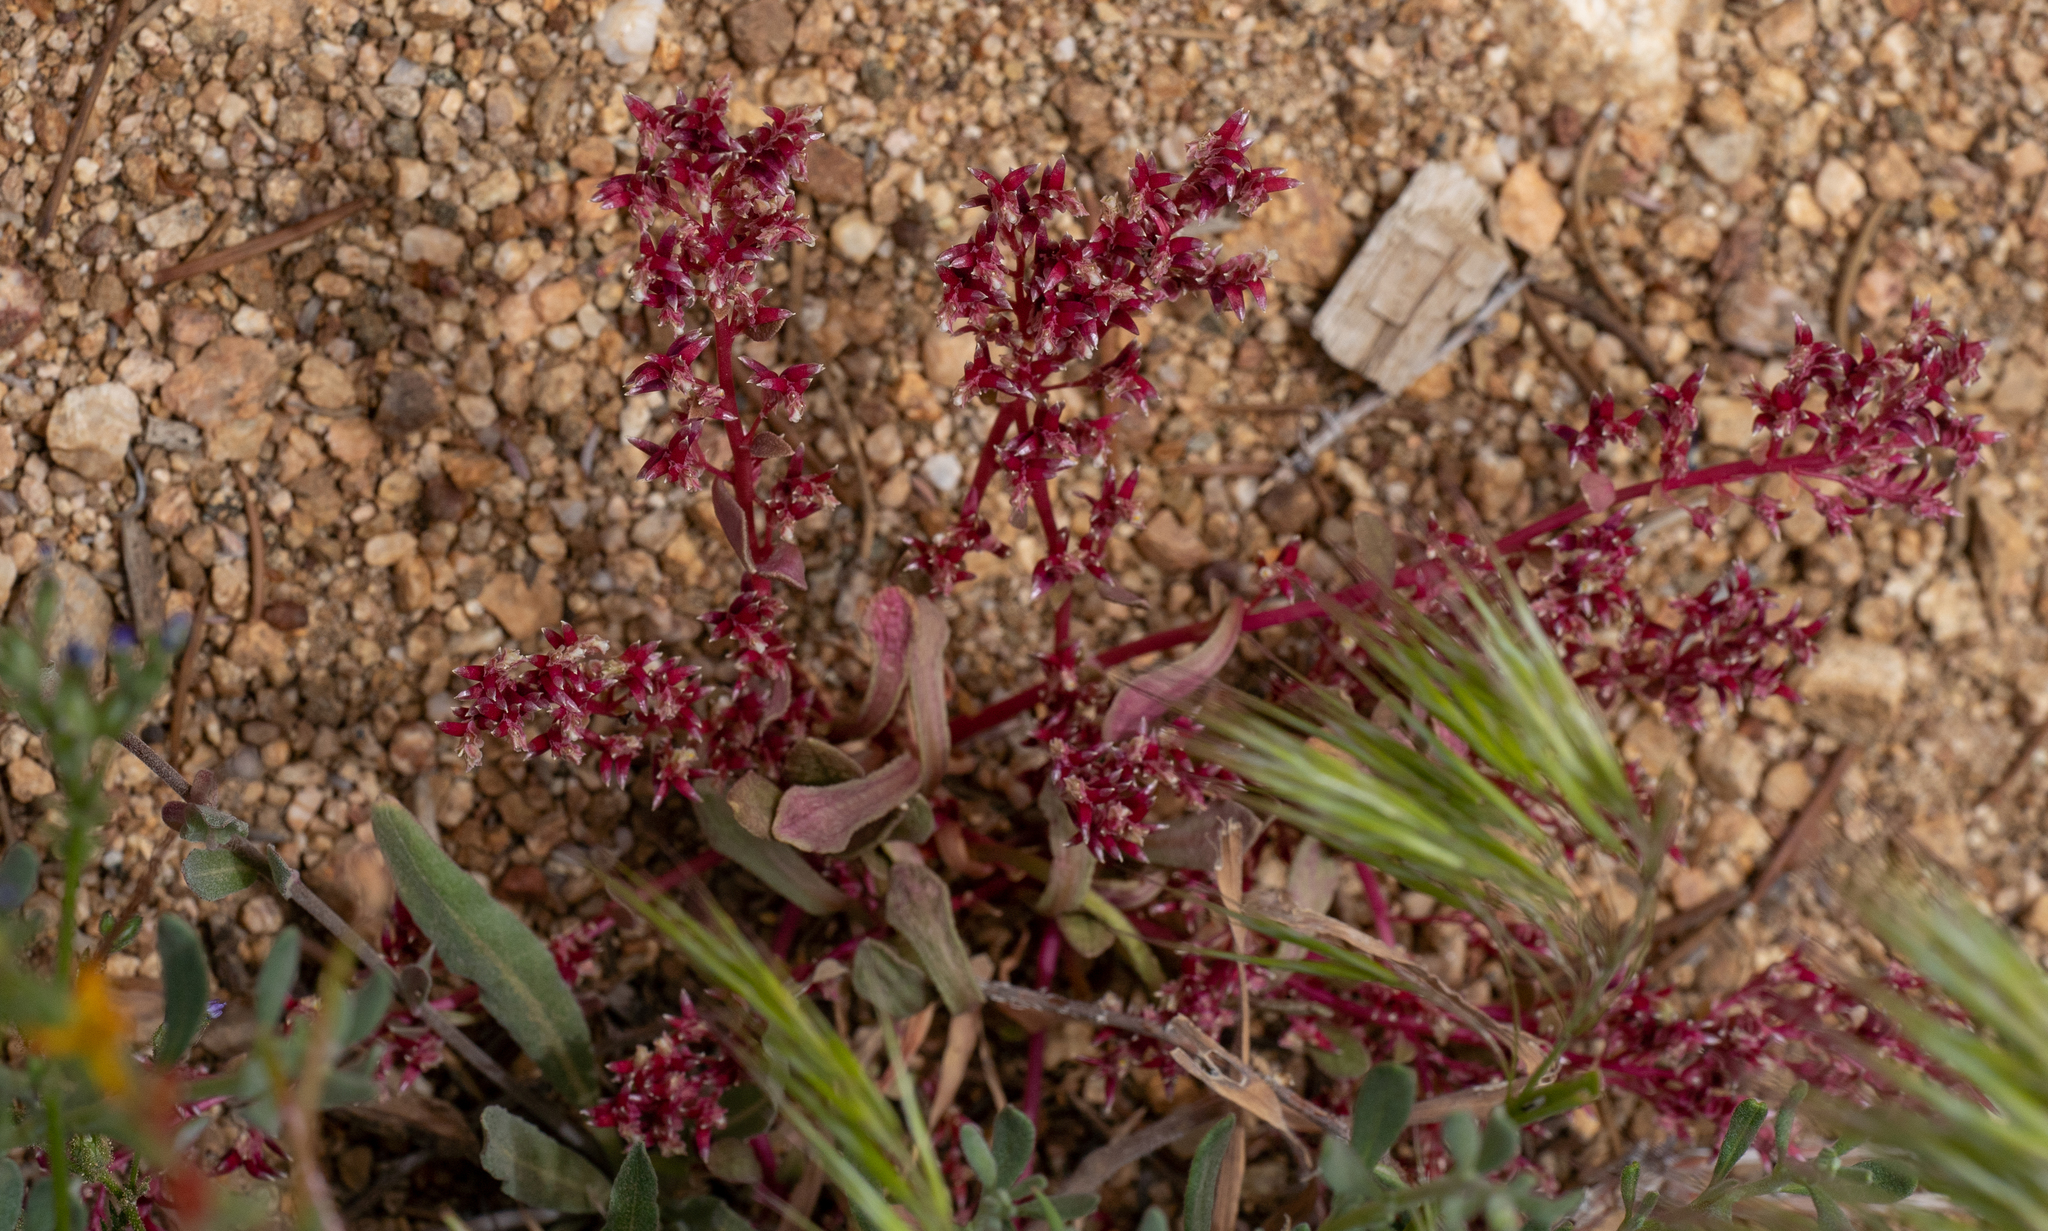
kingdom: Plantae
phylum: Tracheophyta
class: Magnoliopsida
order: Caryophyllales
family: Montiaceae
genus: Calyptridium
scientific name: Calyptridium monandrum
